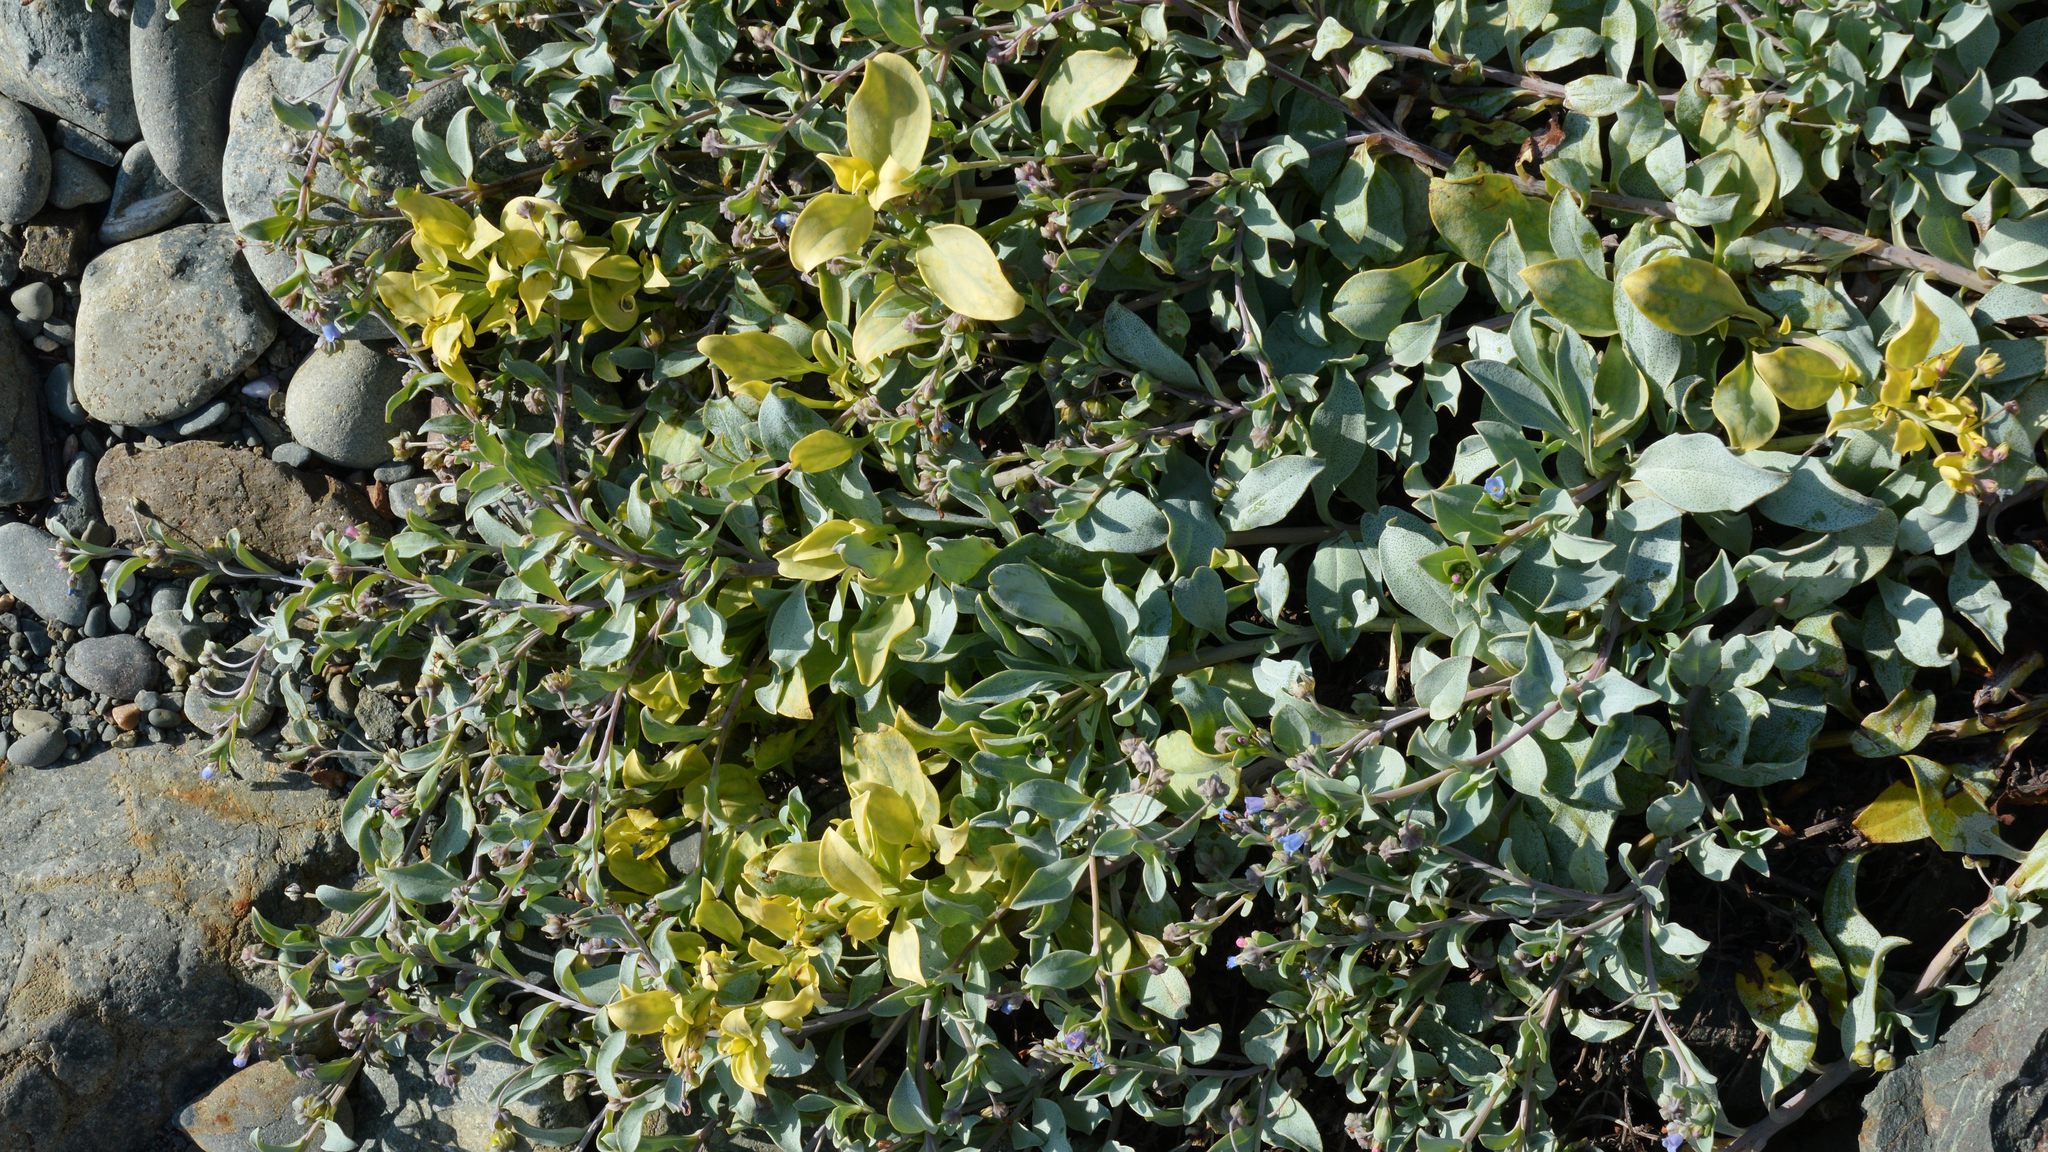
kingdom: Plantae
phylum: Tracheophyta
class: Magnoliopsida
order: Boraginales
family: Boraginaceae
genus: Mertensia
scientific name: Mertensia maritima
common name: Oysterplant
